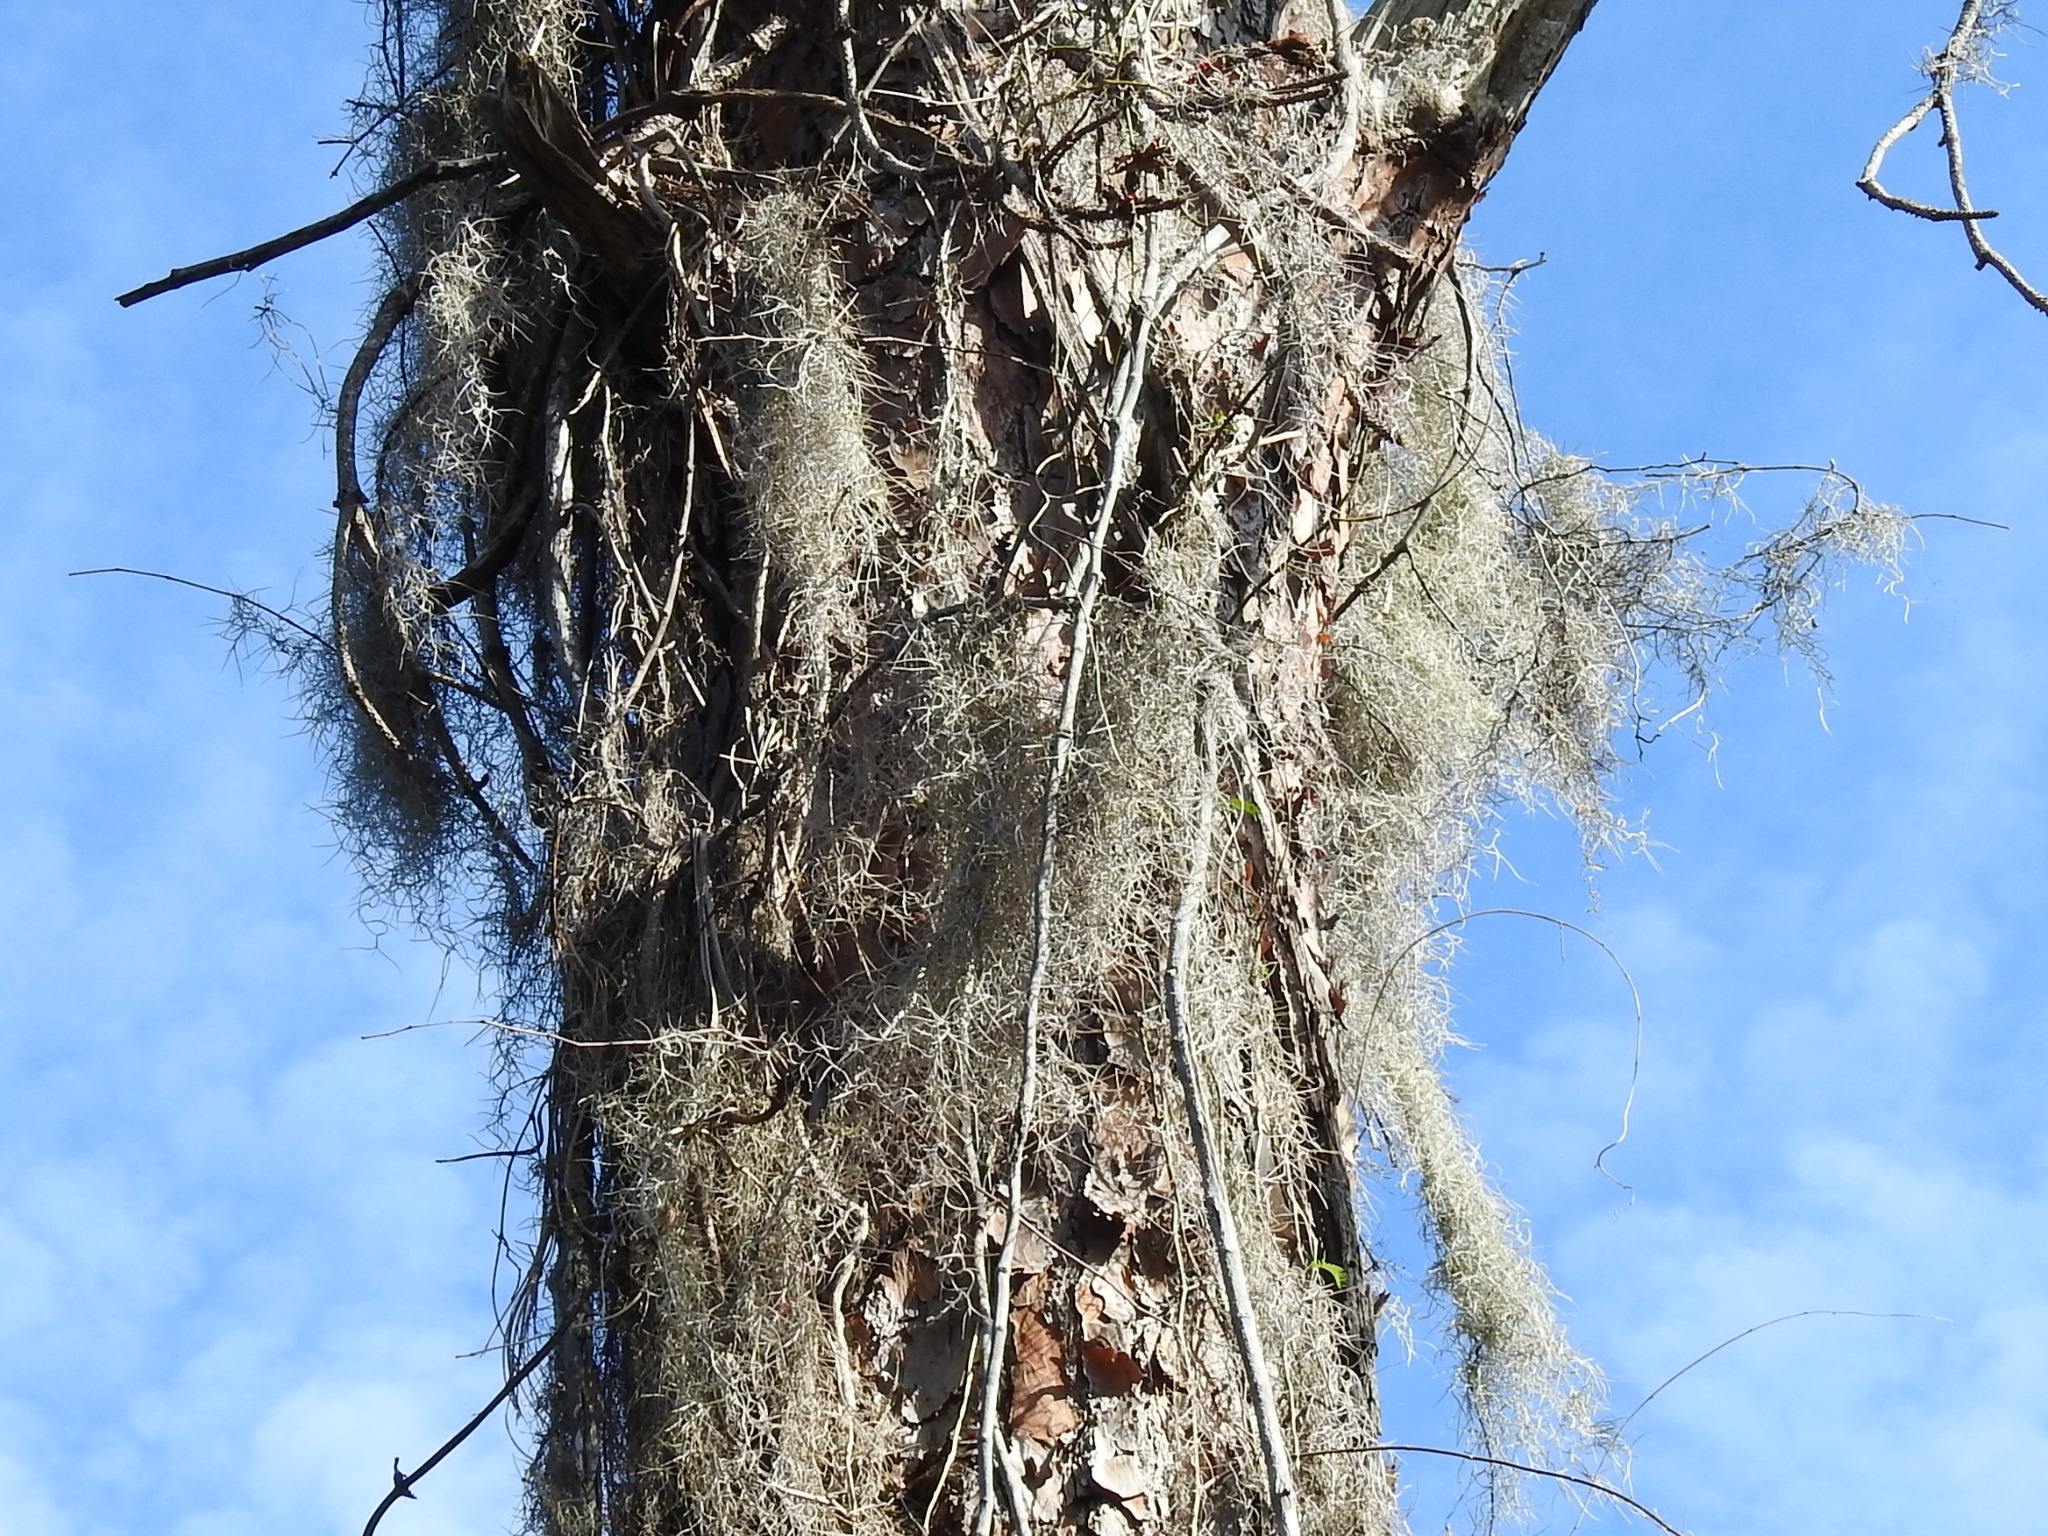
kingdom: Plantae
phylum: Tracheophyta
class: Liliopsida
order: Poales
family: Bromeliaceae
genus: Tillandsia
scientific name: Tillandsia usneoides
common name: Spanish moss
